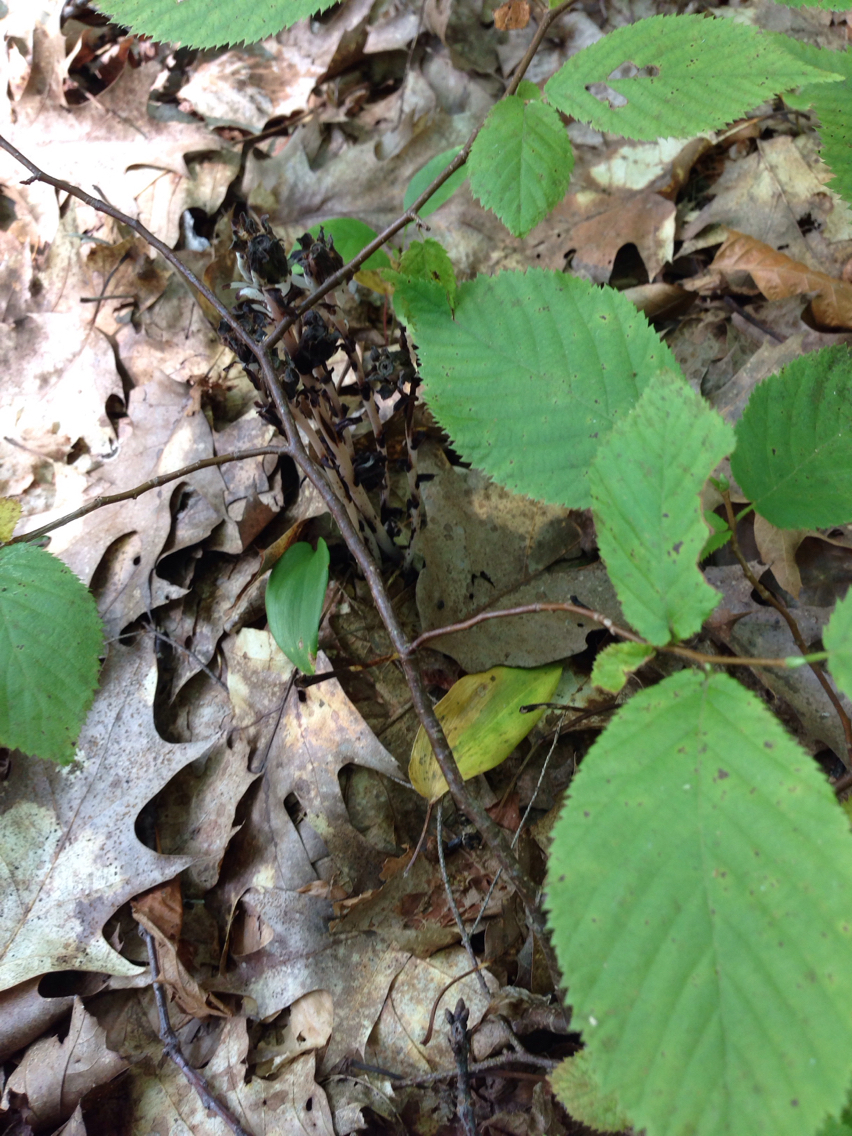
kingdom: Plantae
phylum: Tracheophyta
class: Magnoliopsida
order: Ericales
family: Ericaceae
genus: Monotropa
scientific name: Monotropa uniflora
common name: Convulsion root
